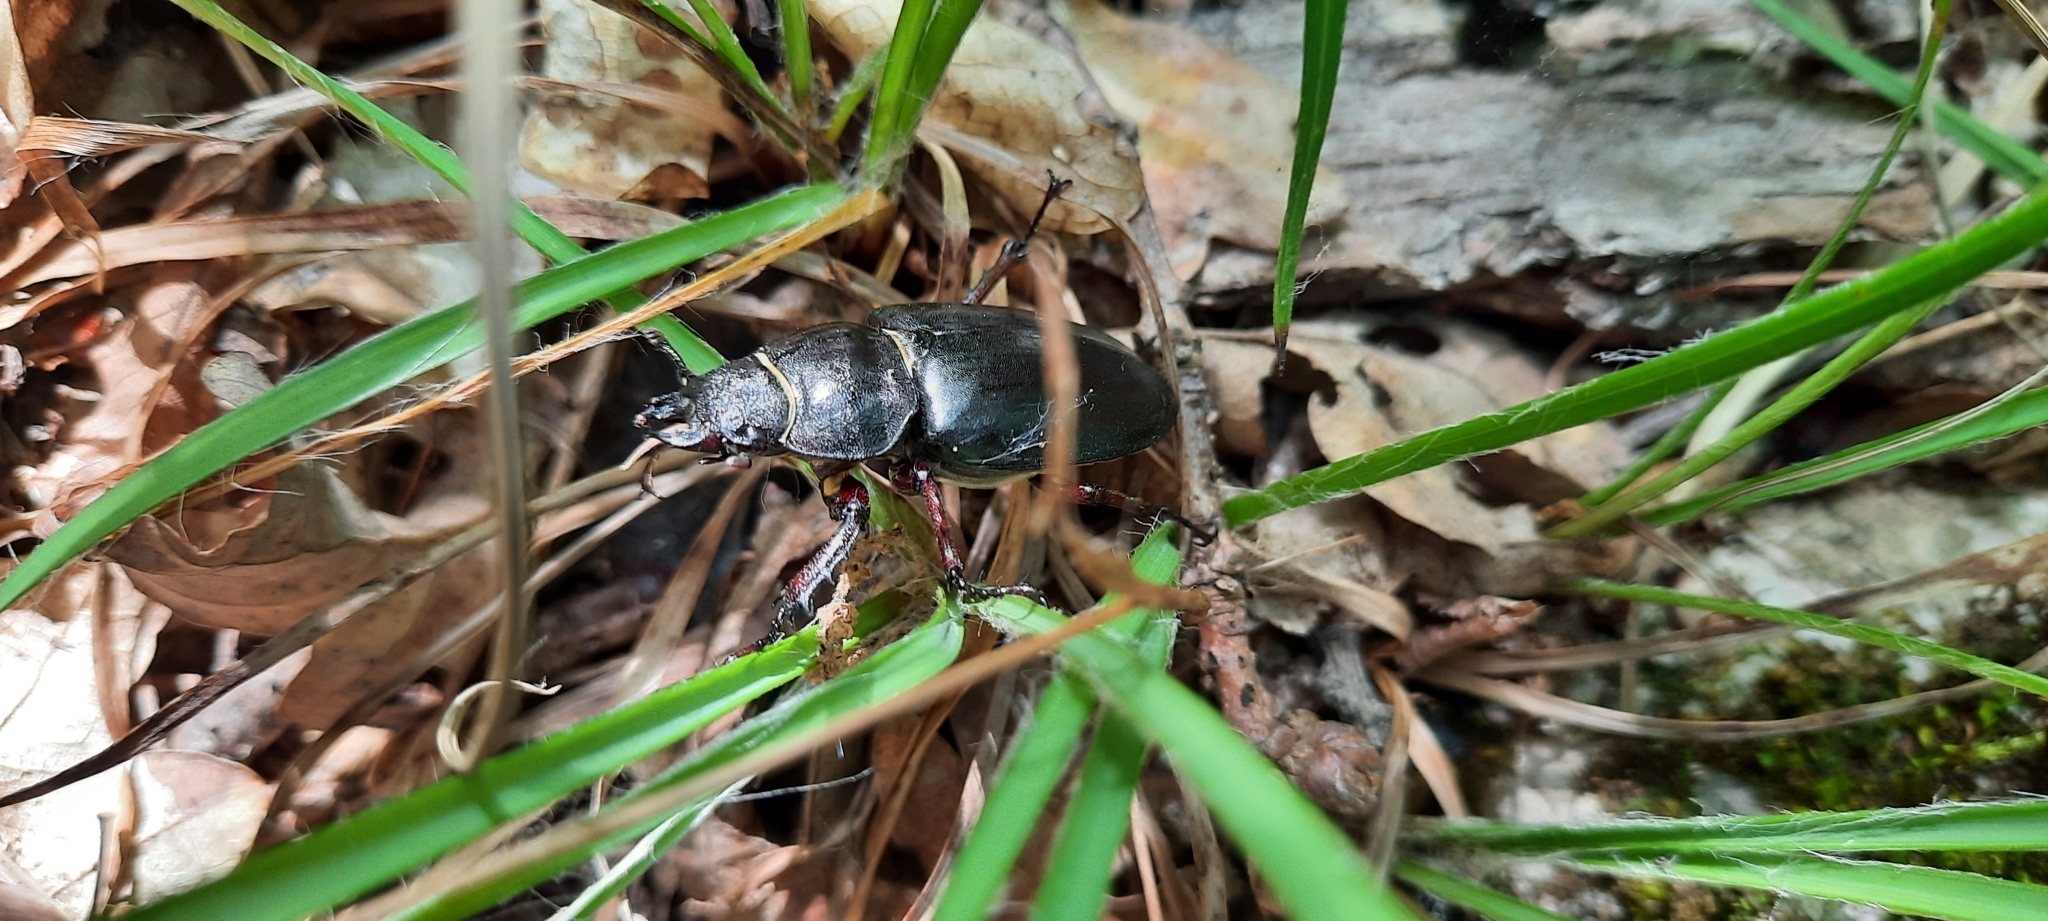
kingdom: Animalia
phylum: Arthropoda
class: Insecta
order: Coleoptera
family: Lucanidae
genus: Lucanus
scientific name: Lucanus cervus
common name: Stag beetle
